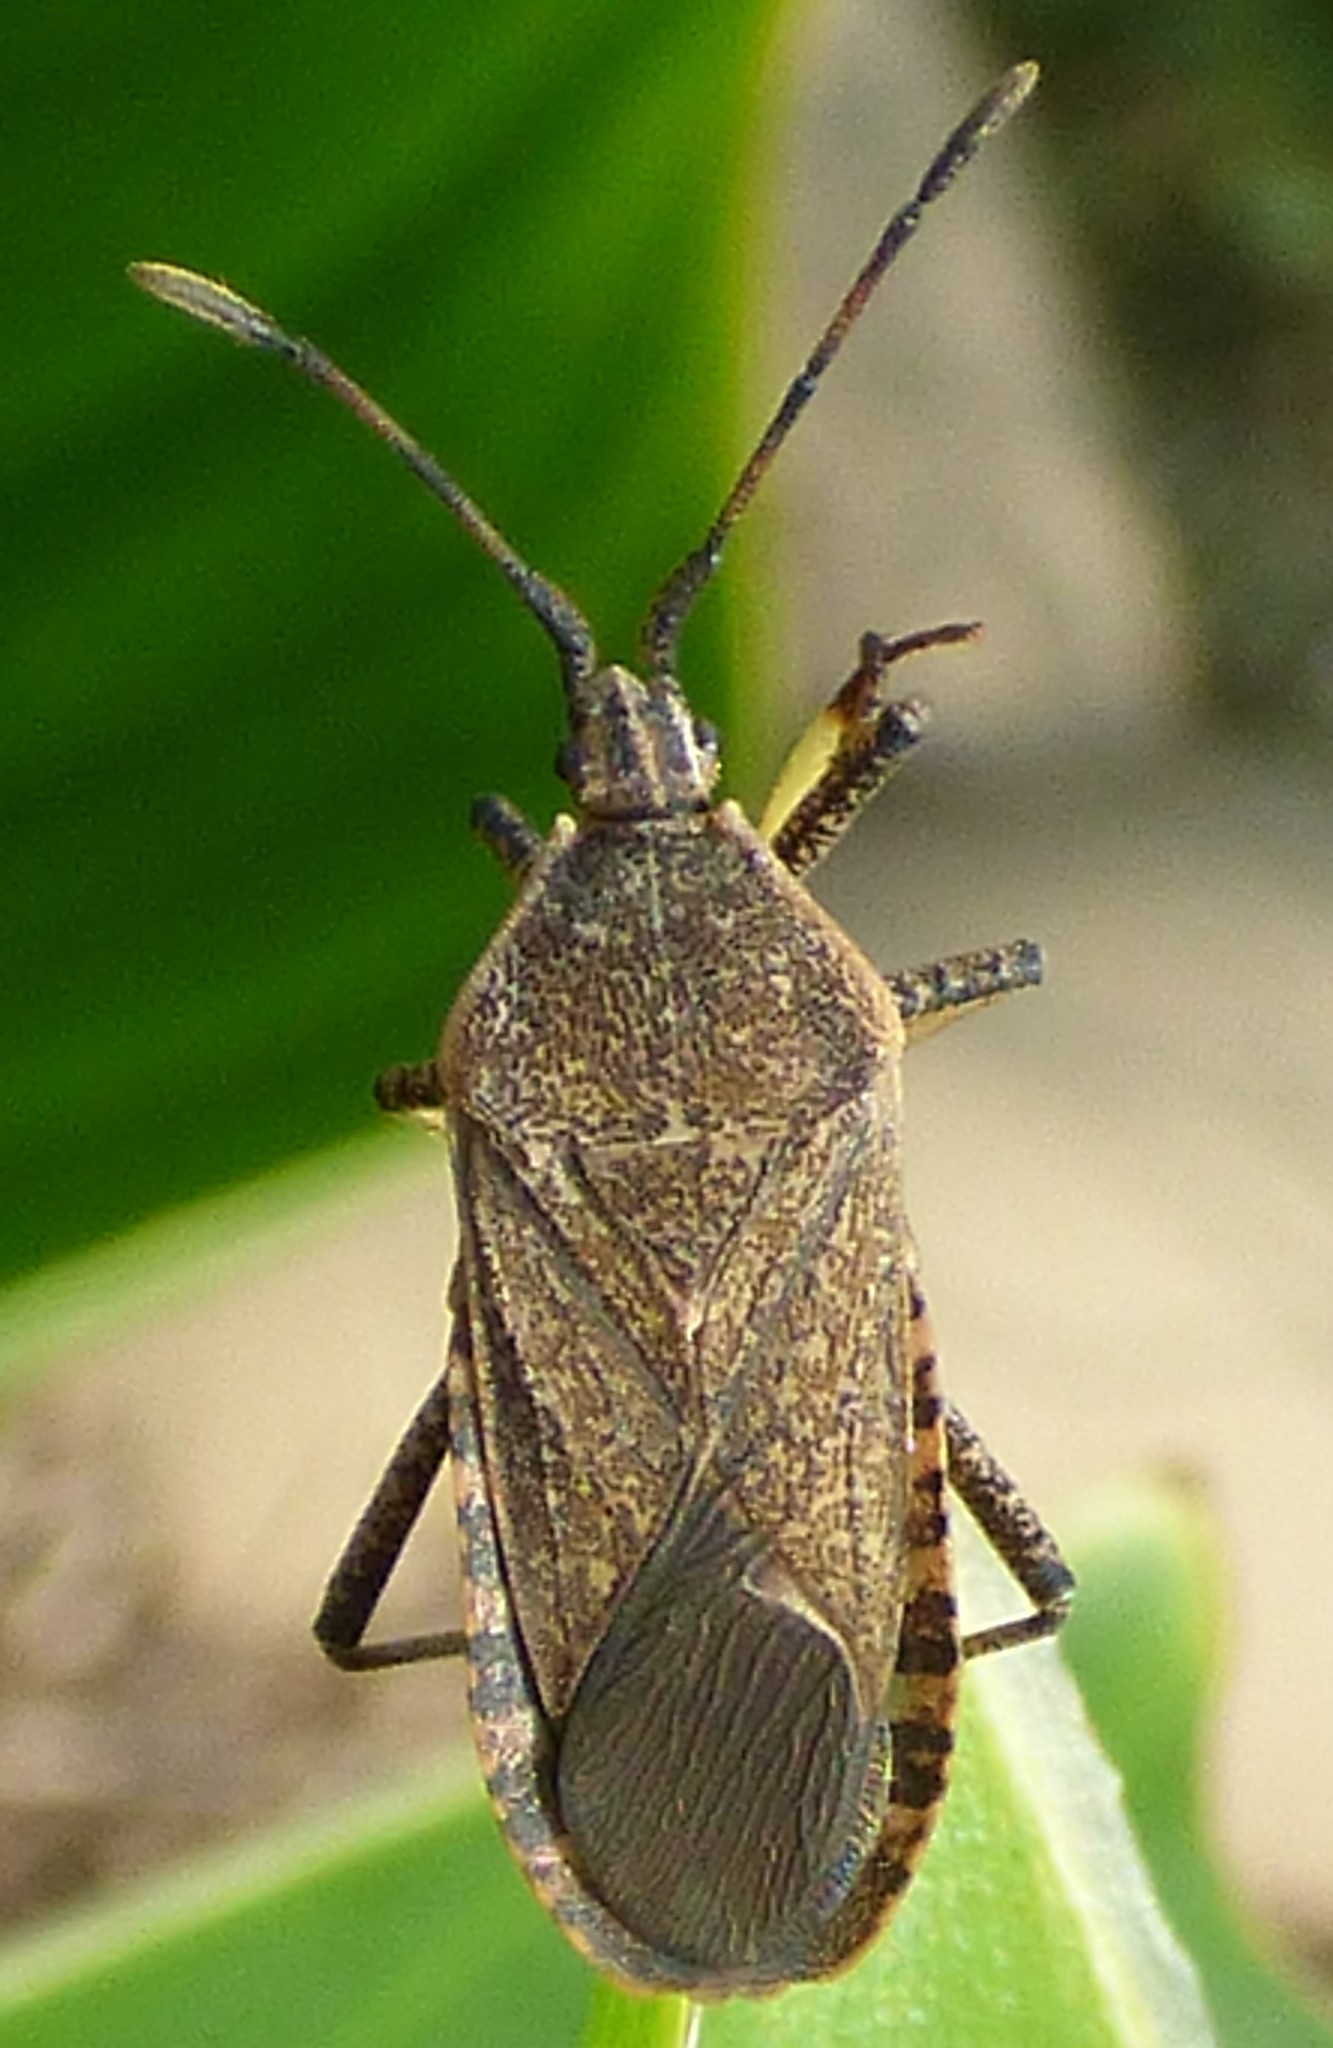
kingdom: Animalia
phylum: Arthropoda
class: Insecta
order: Hemiptera
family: Coreidae
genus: Anasa
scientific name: Anasa tristis
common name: Squash bug
